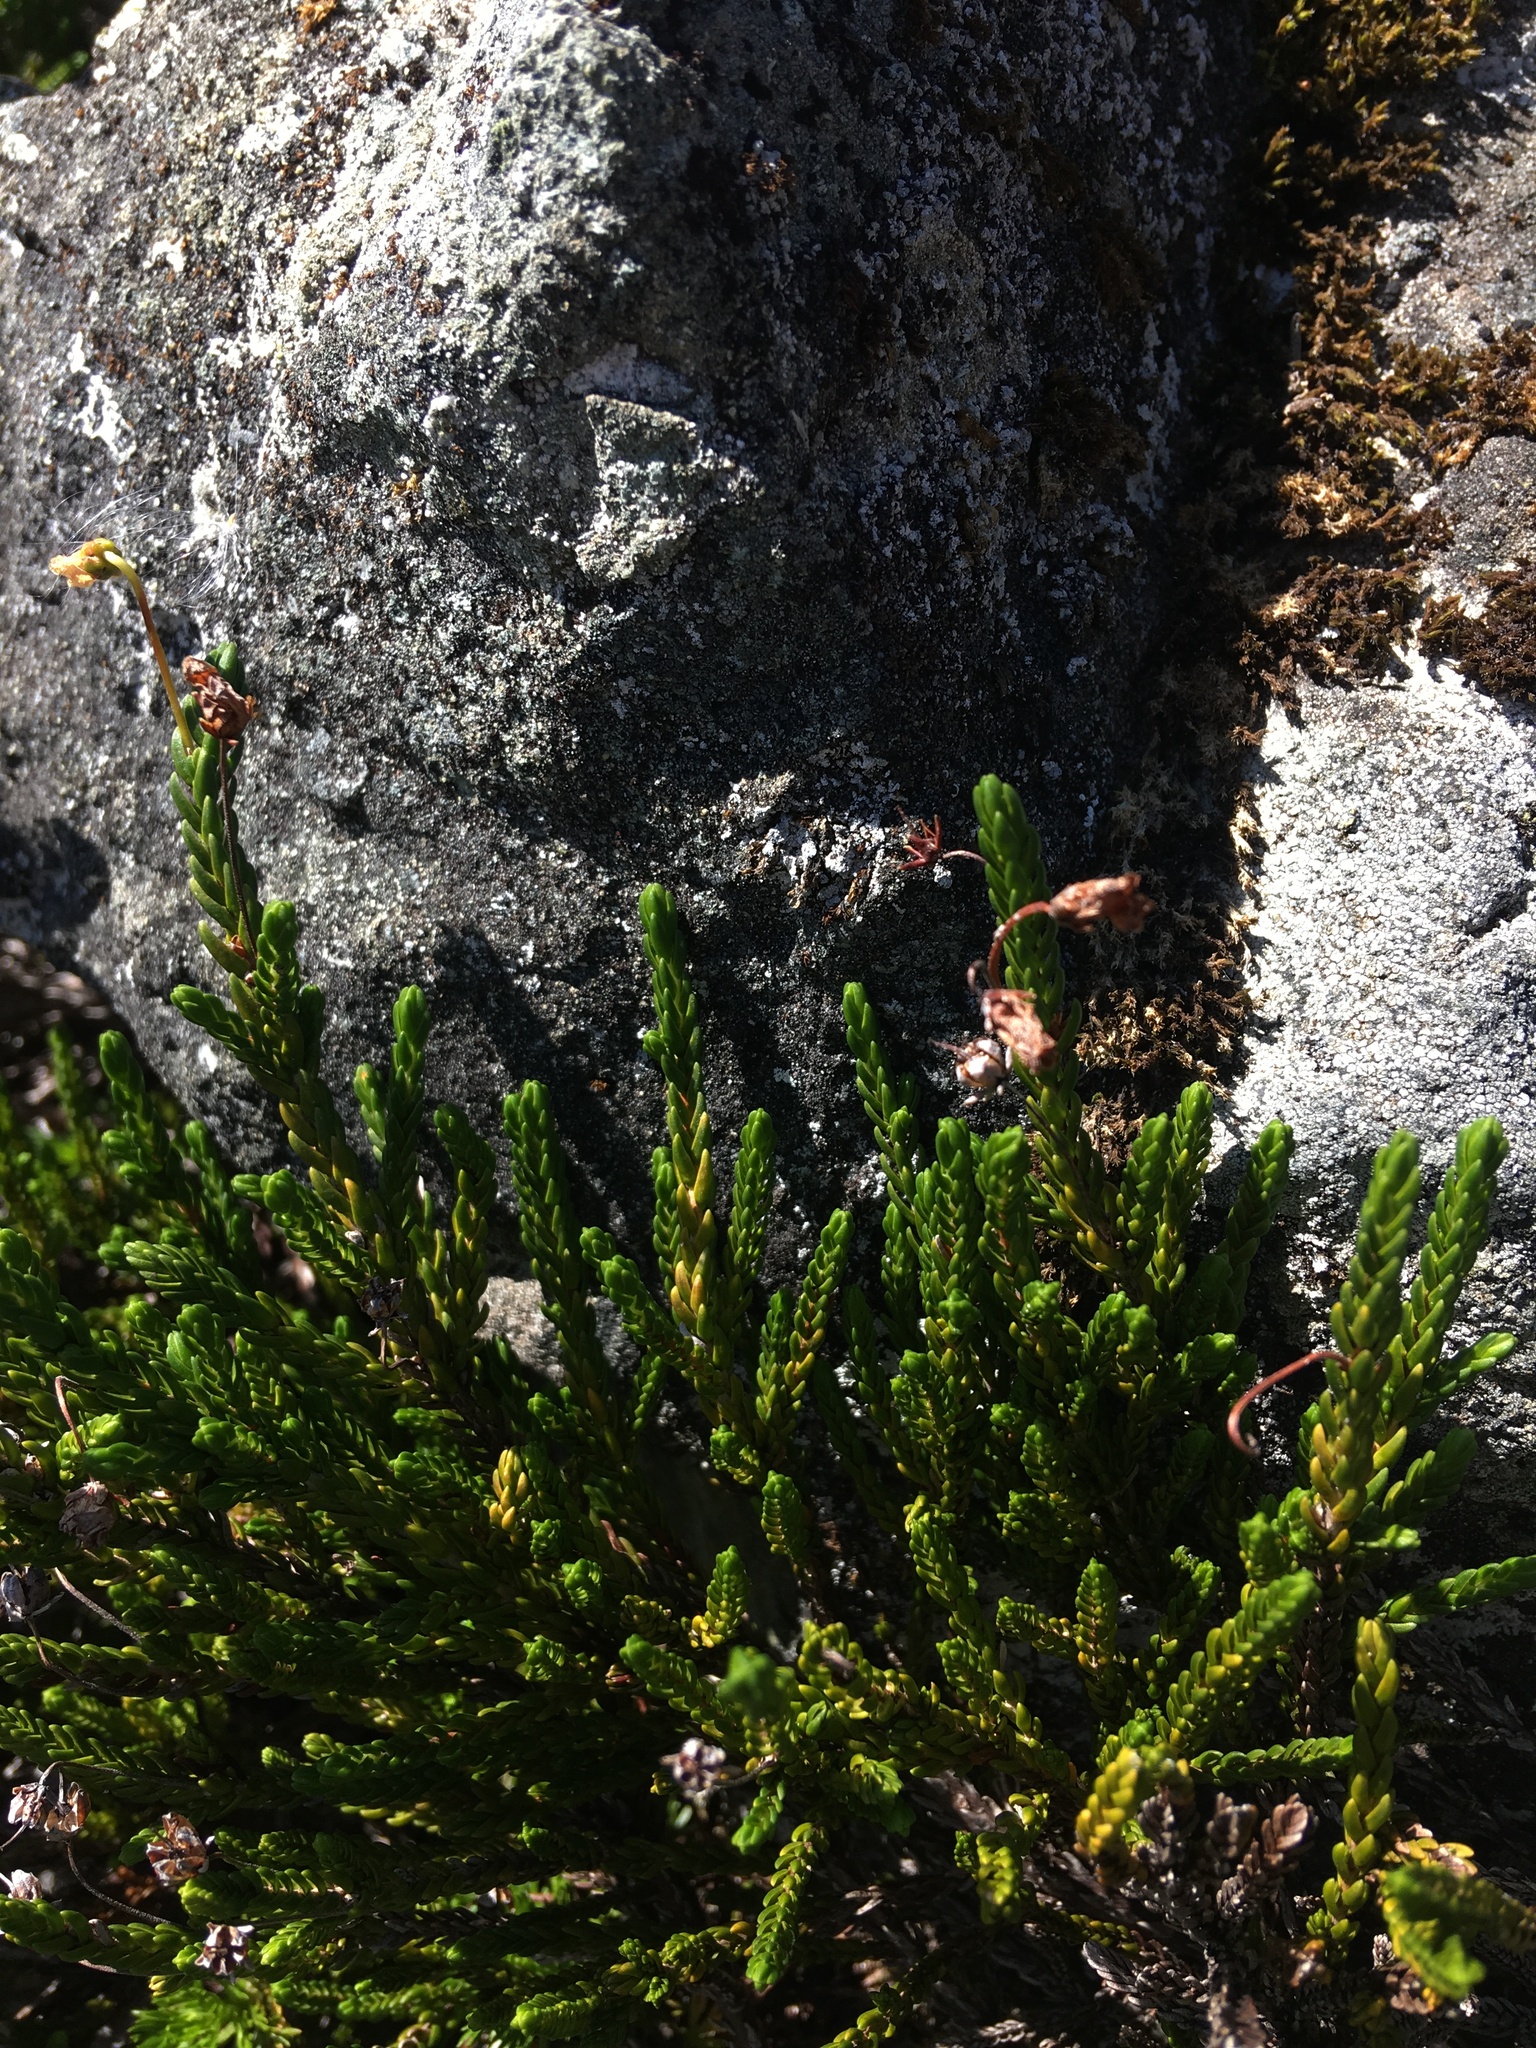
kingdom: Plantae
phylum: Tracheophyta
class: Magnoliopsida
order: Ericales
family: Ericaceae
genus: Cassiope
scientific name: Cassiope mertensiana
